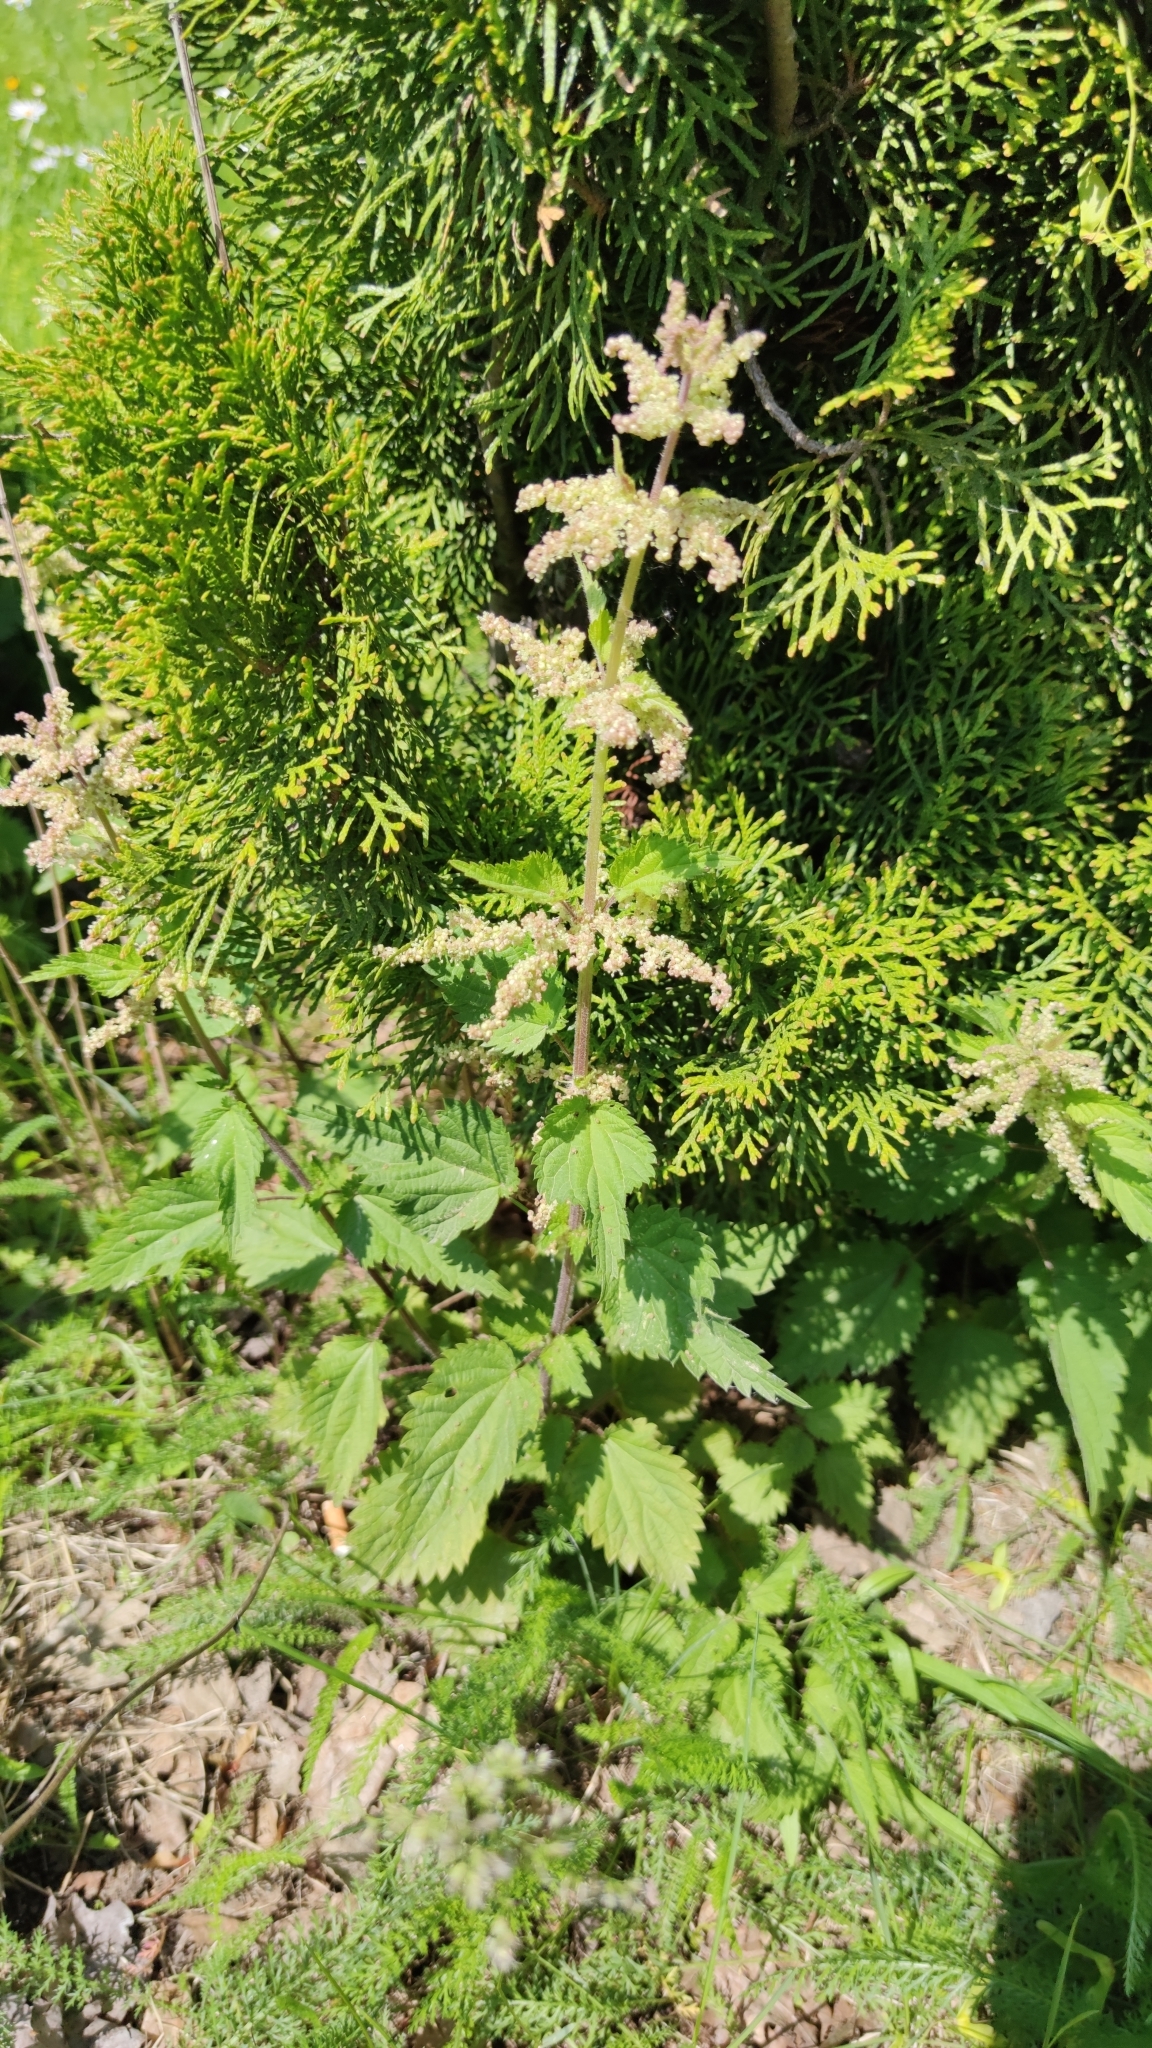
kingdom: Plantae
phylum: Tracheophyta
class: Magnoliopsida
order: Rosales
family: Urticaceae
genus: Urtica
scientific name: Urtica dioica
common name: Common nettle
